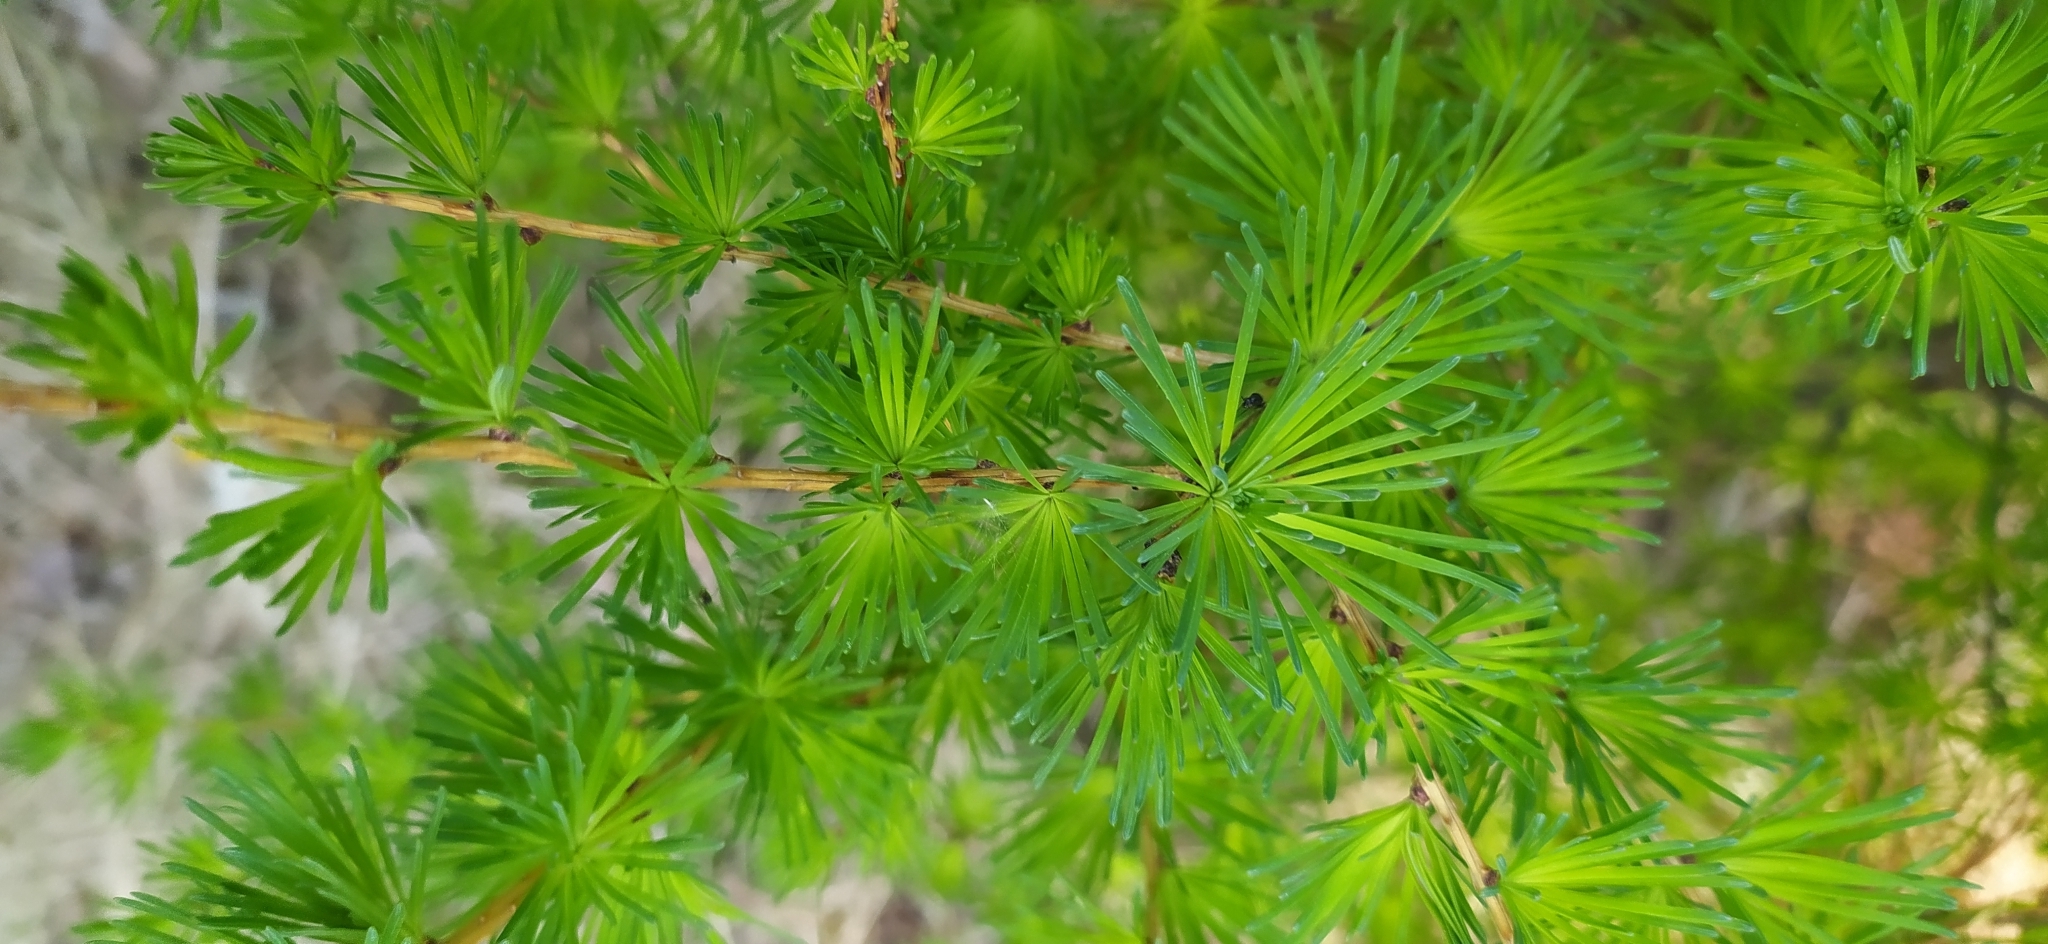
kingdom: Plantae
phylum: Tracheophyta
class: Pinopsida
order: Pinales
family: Pinaceae
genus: Larix
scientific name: Larix sibirica
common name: Siberian larch
